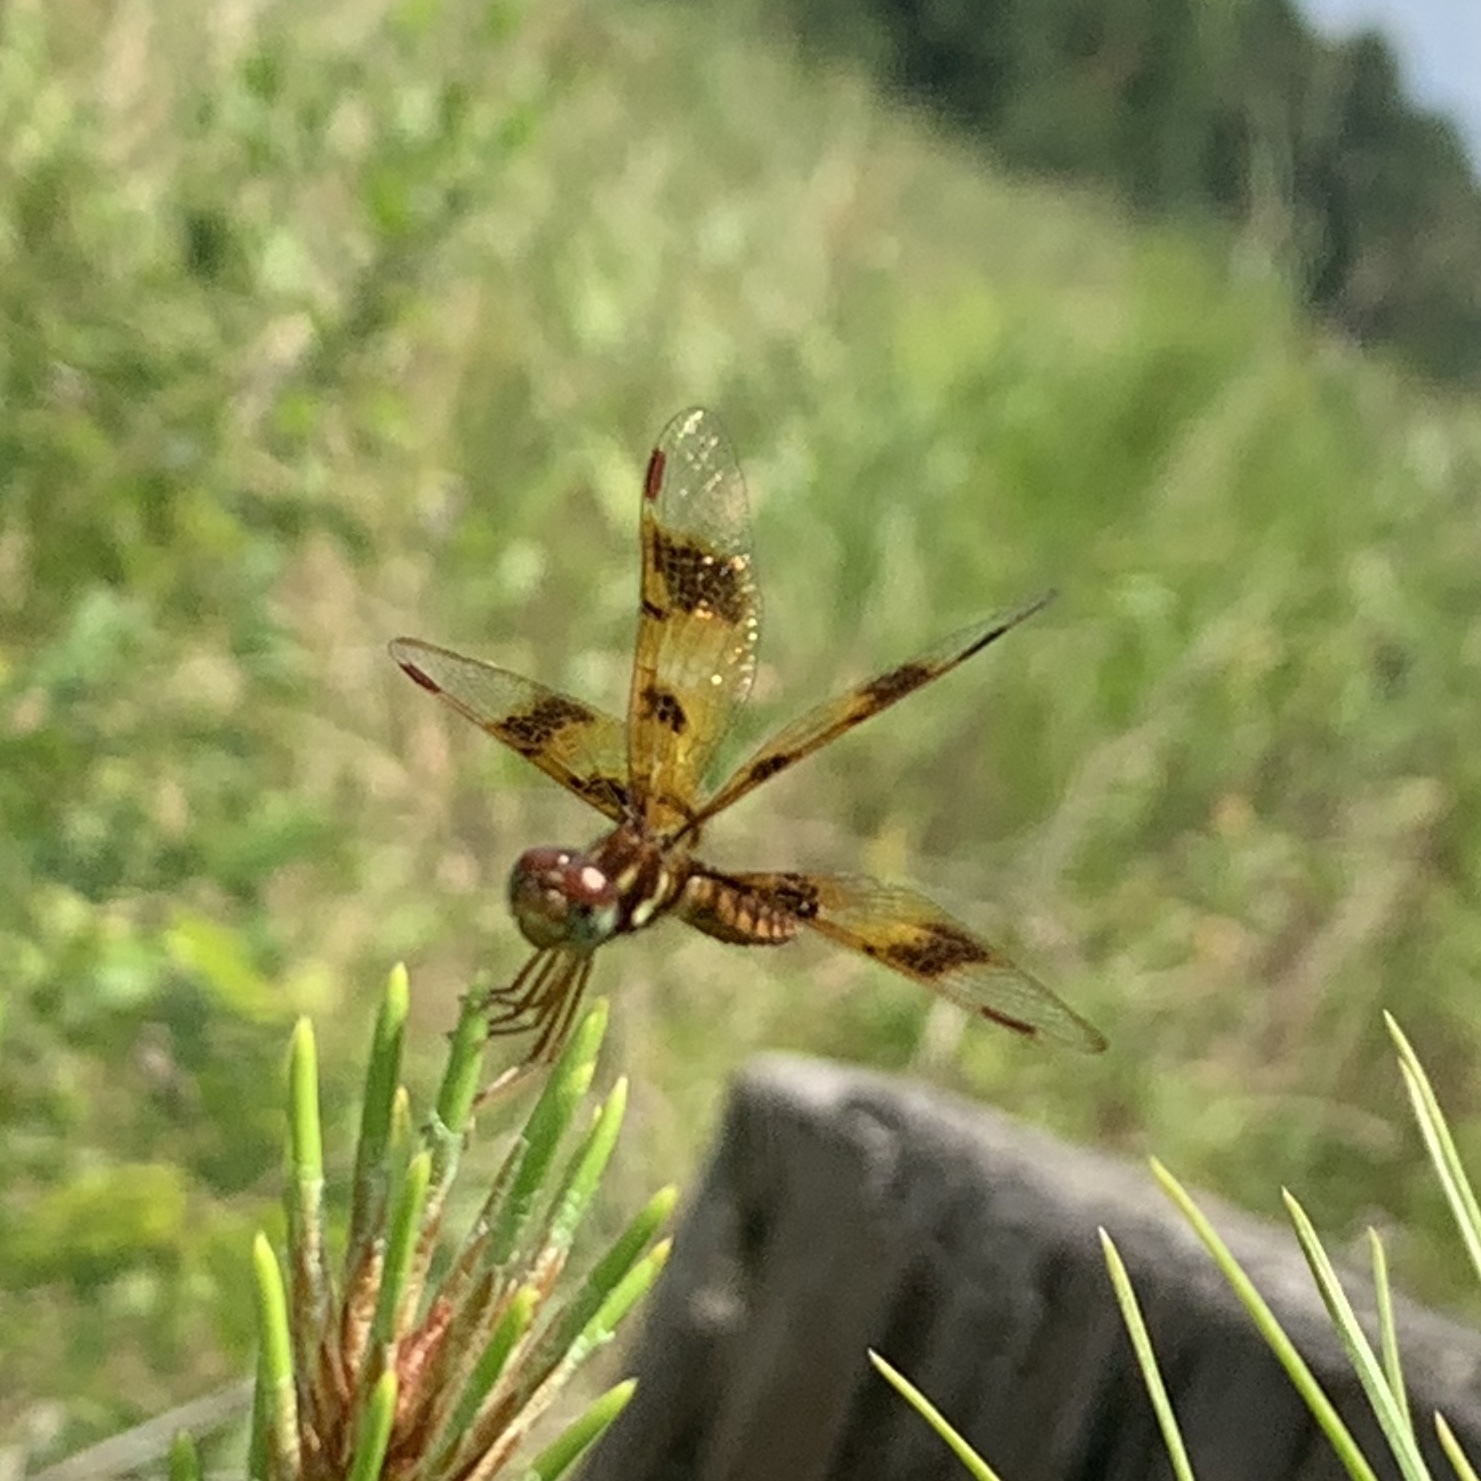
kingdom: Animalia
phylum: Arthropoda
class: Insecta
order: Odonata
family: Libellulidae
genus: Perithemis
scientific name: Perithemis tenera
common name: Eastern amberwing
